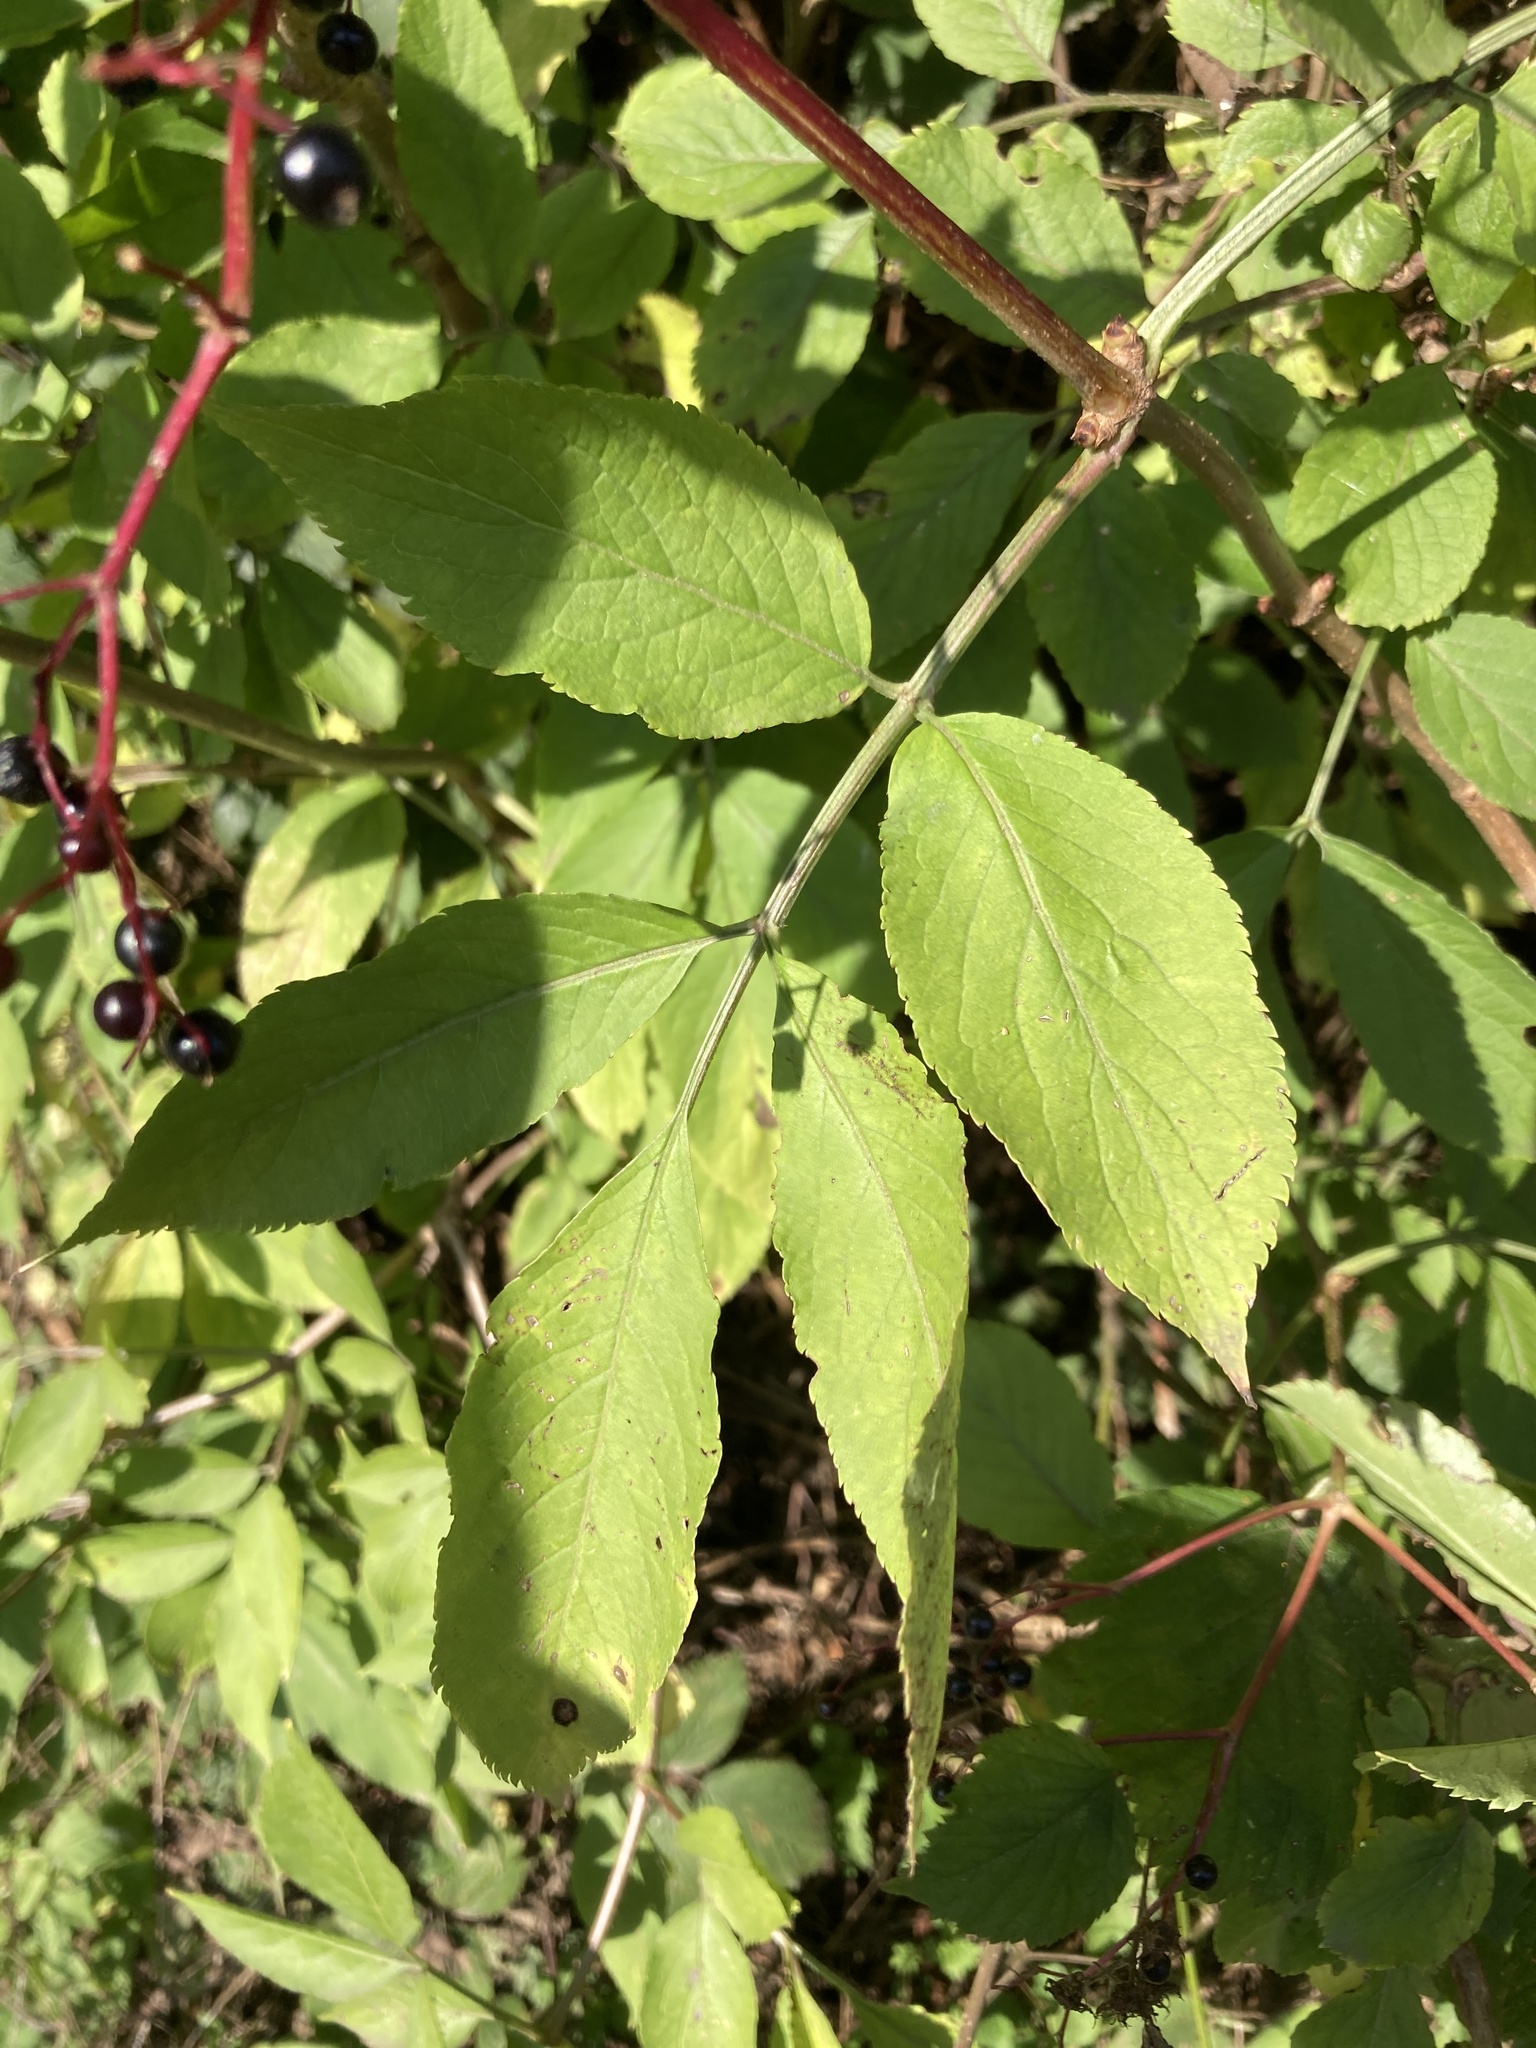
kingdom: Plantae
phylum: Tracheophyta
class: Magnoliopsida
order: Dipsacales
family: Viburnaceae
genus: Sambucus
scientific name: Sambucus nigra
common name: Elder
